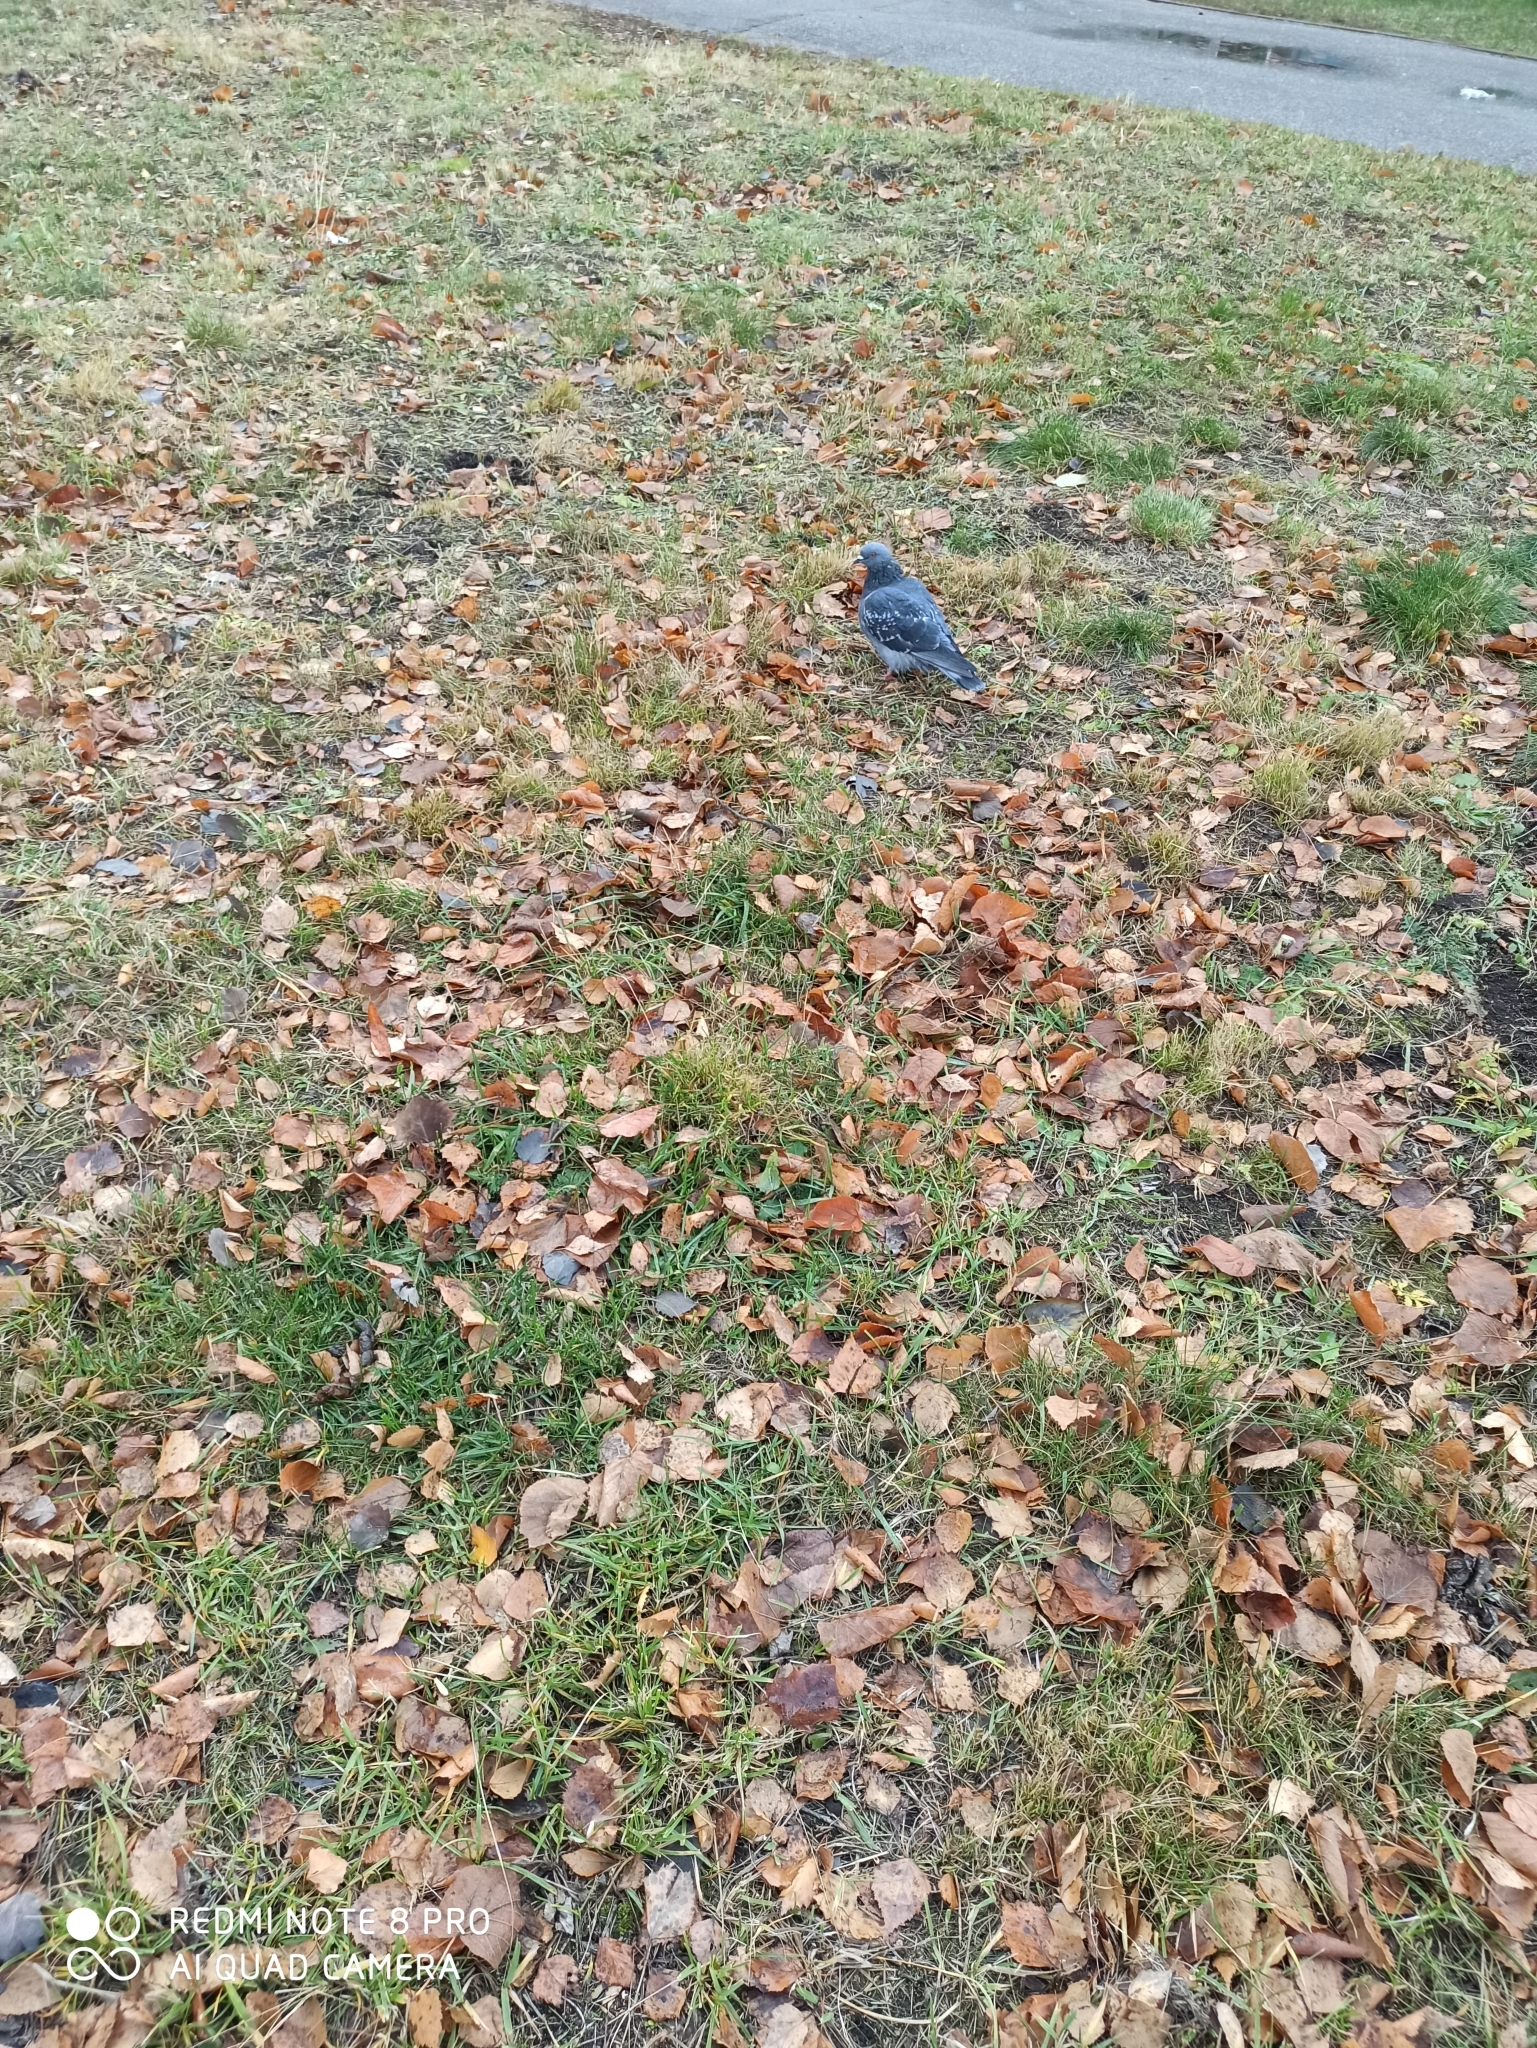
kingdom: Animalia
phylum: Chordata
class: Aves
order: Columbiformes
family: Columbidae
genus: Columba
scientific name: Columba livia
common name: Rock pigeon
